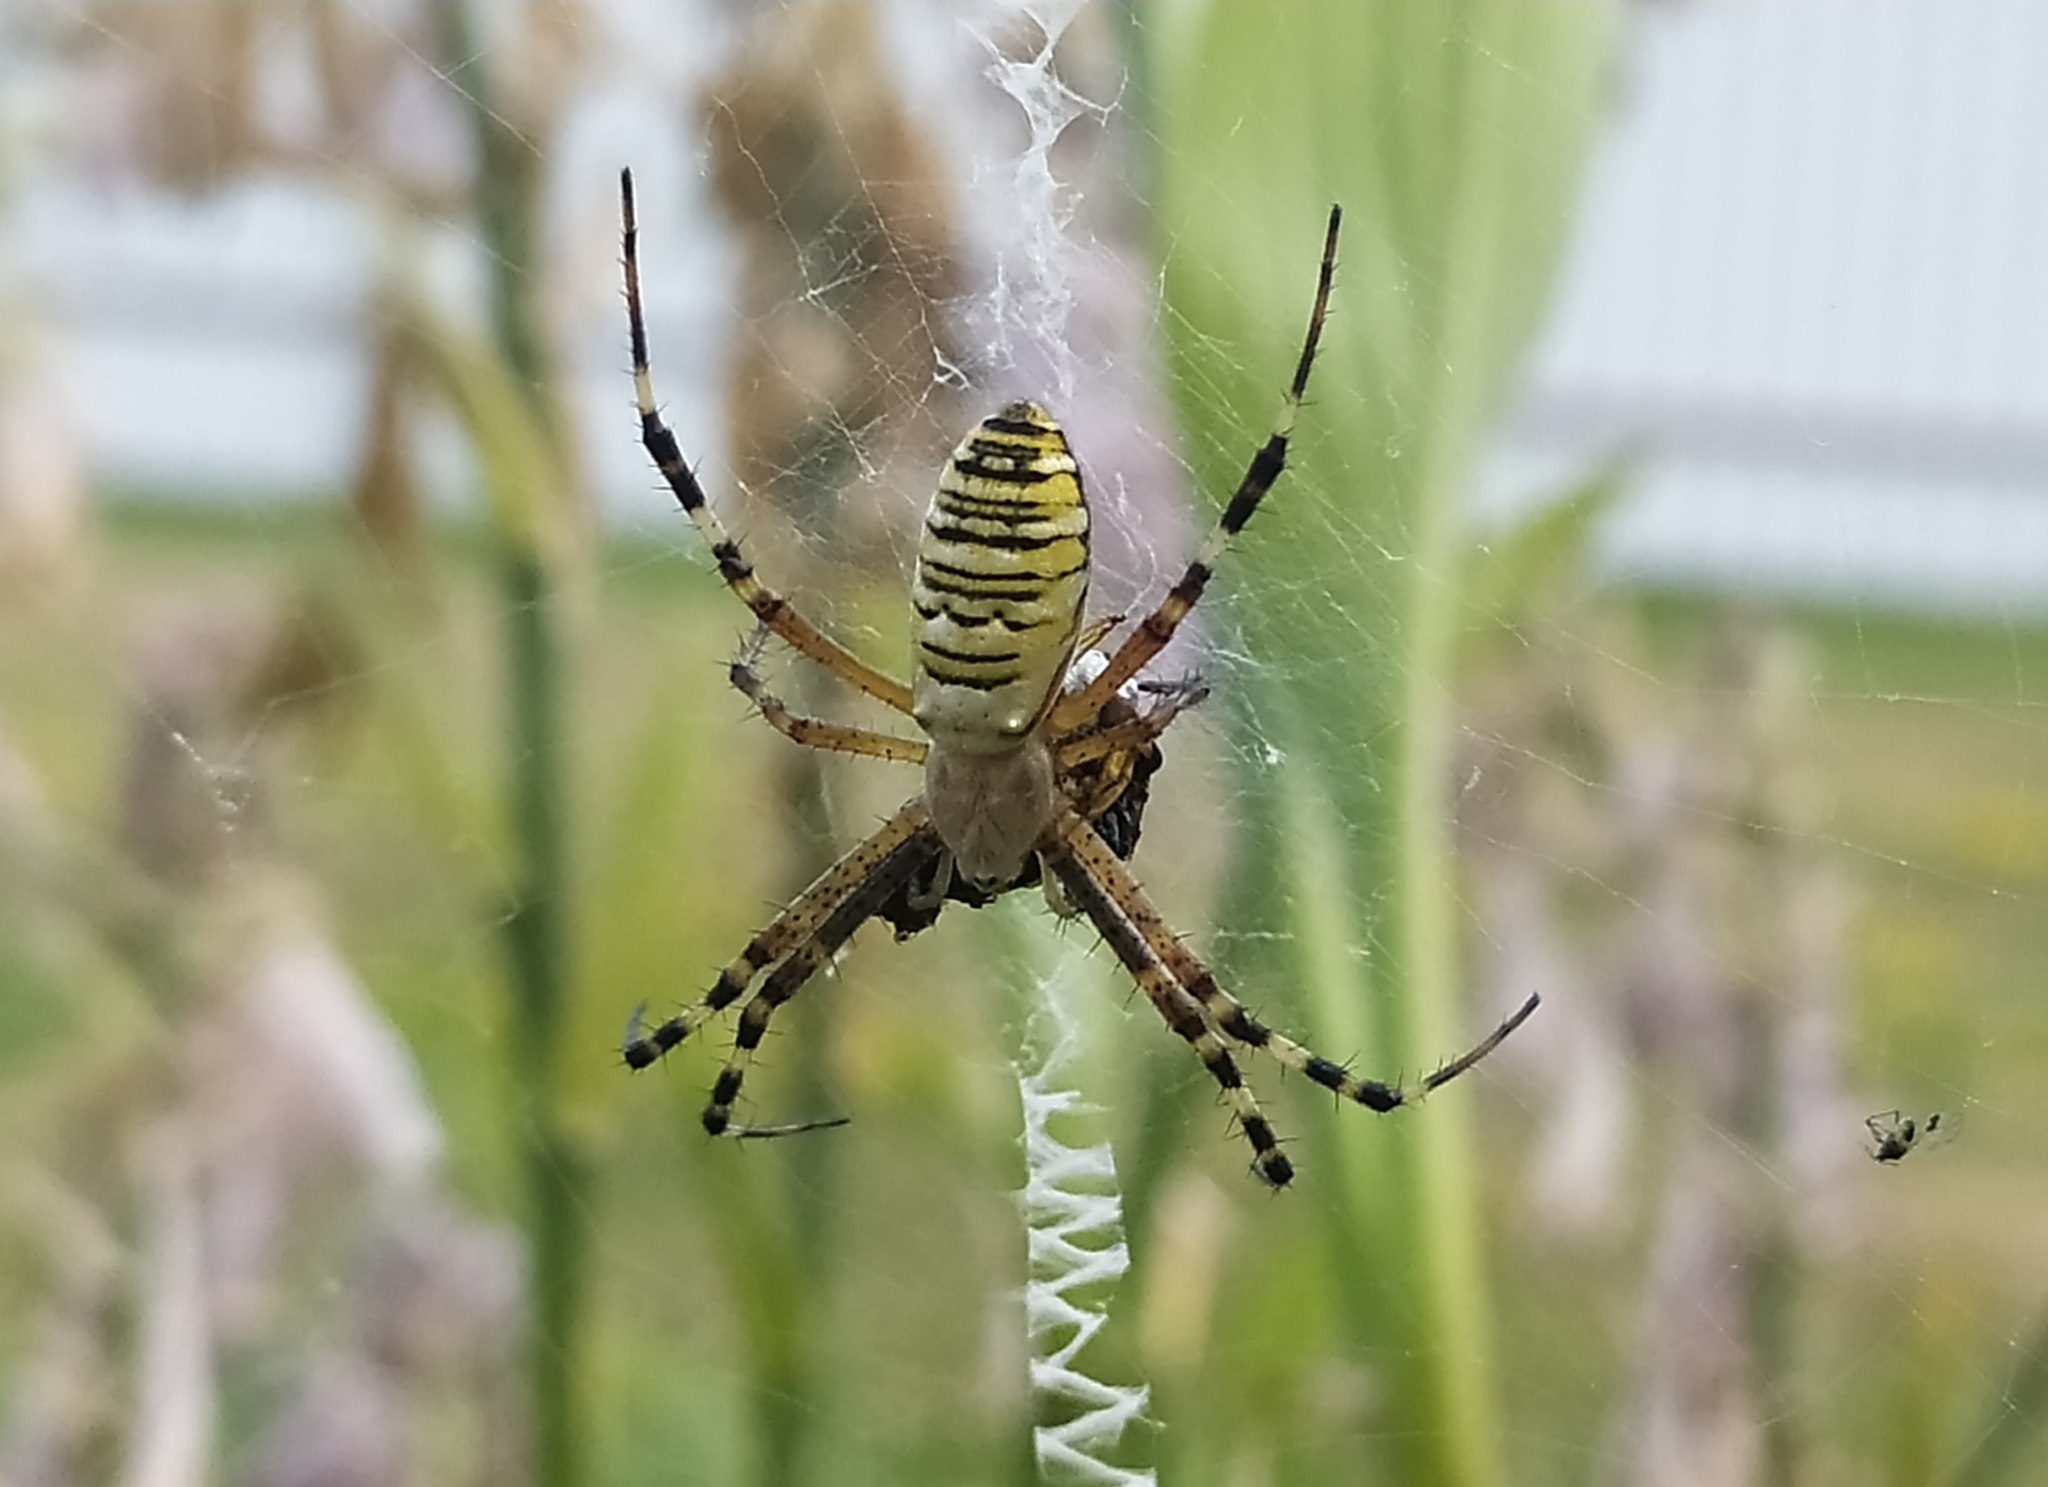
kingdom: Animalia
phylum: Arthropoda
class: Arachnida
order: Araneae
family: Araneidae
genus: Argiope
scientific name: Argiope bruennichi
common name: Wasp spider
